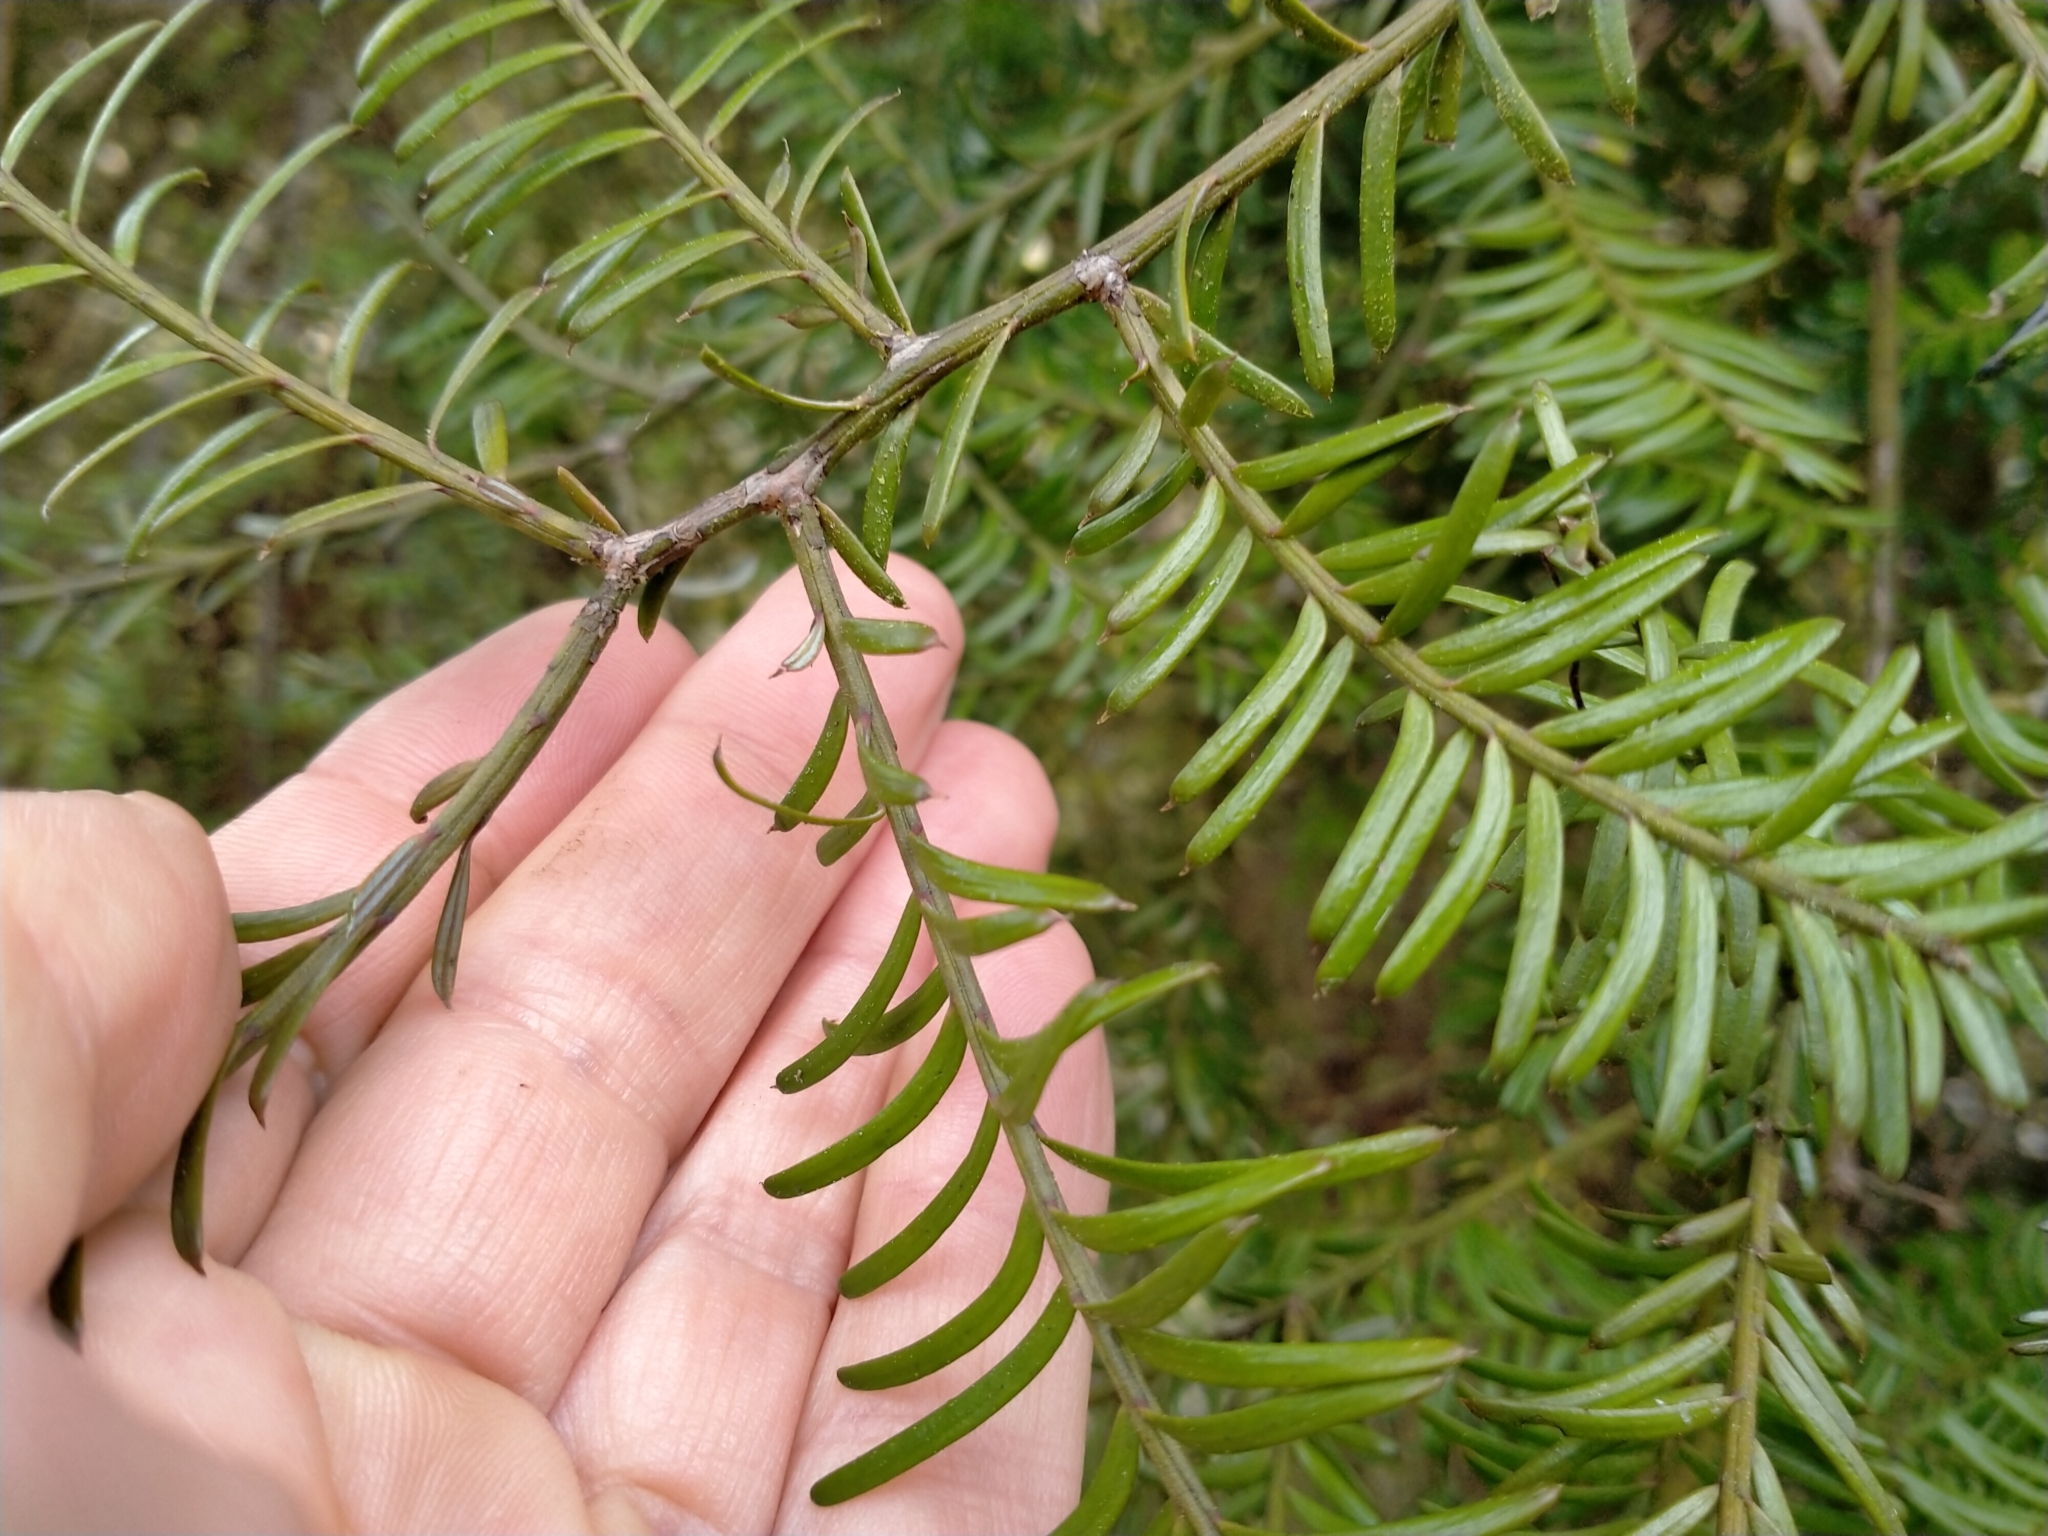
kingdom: Plantae
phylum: Tracheophyta
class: Pinopsida
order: Pinales
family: Podocarpaceae
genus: Prumnopitys
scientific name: Prumnopitys taxifolia
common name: Matai
